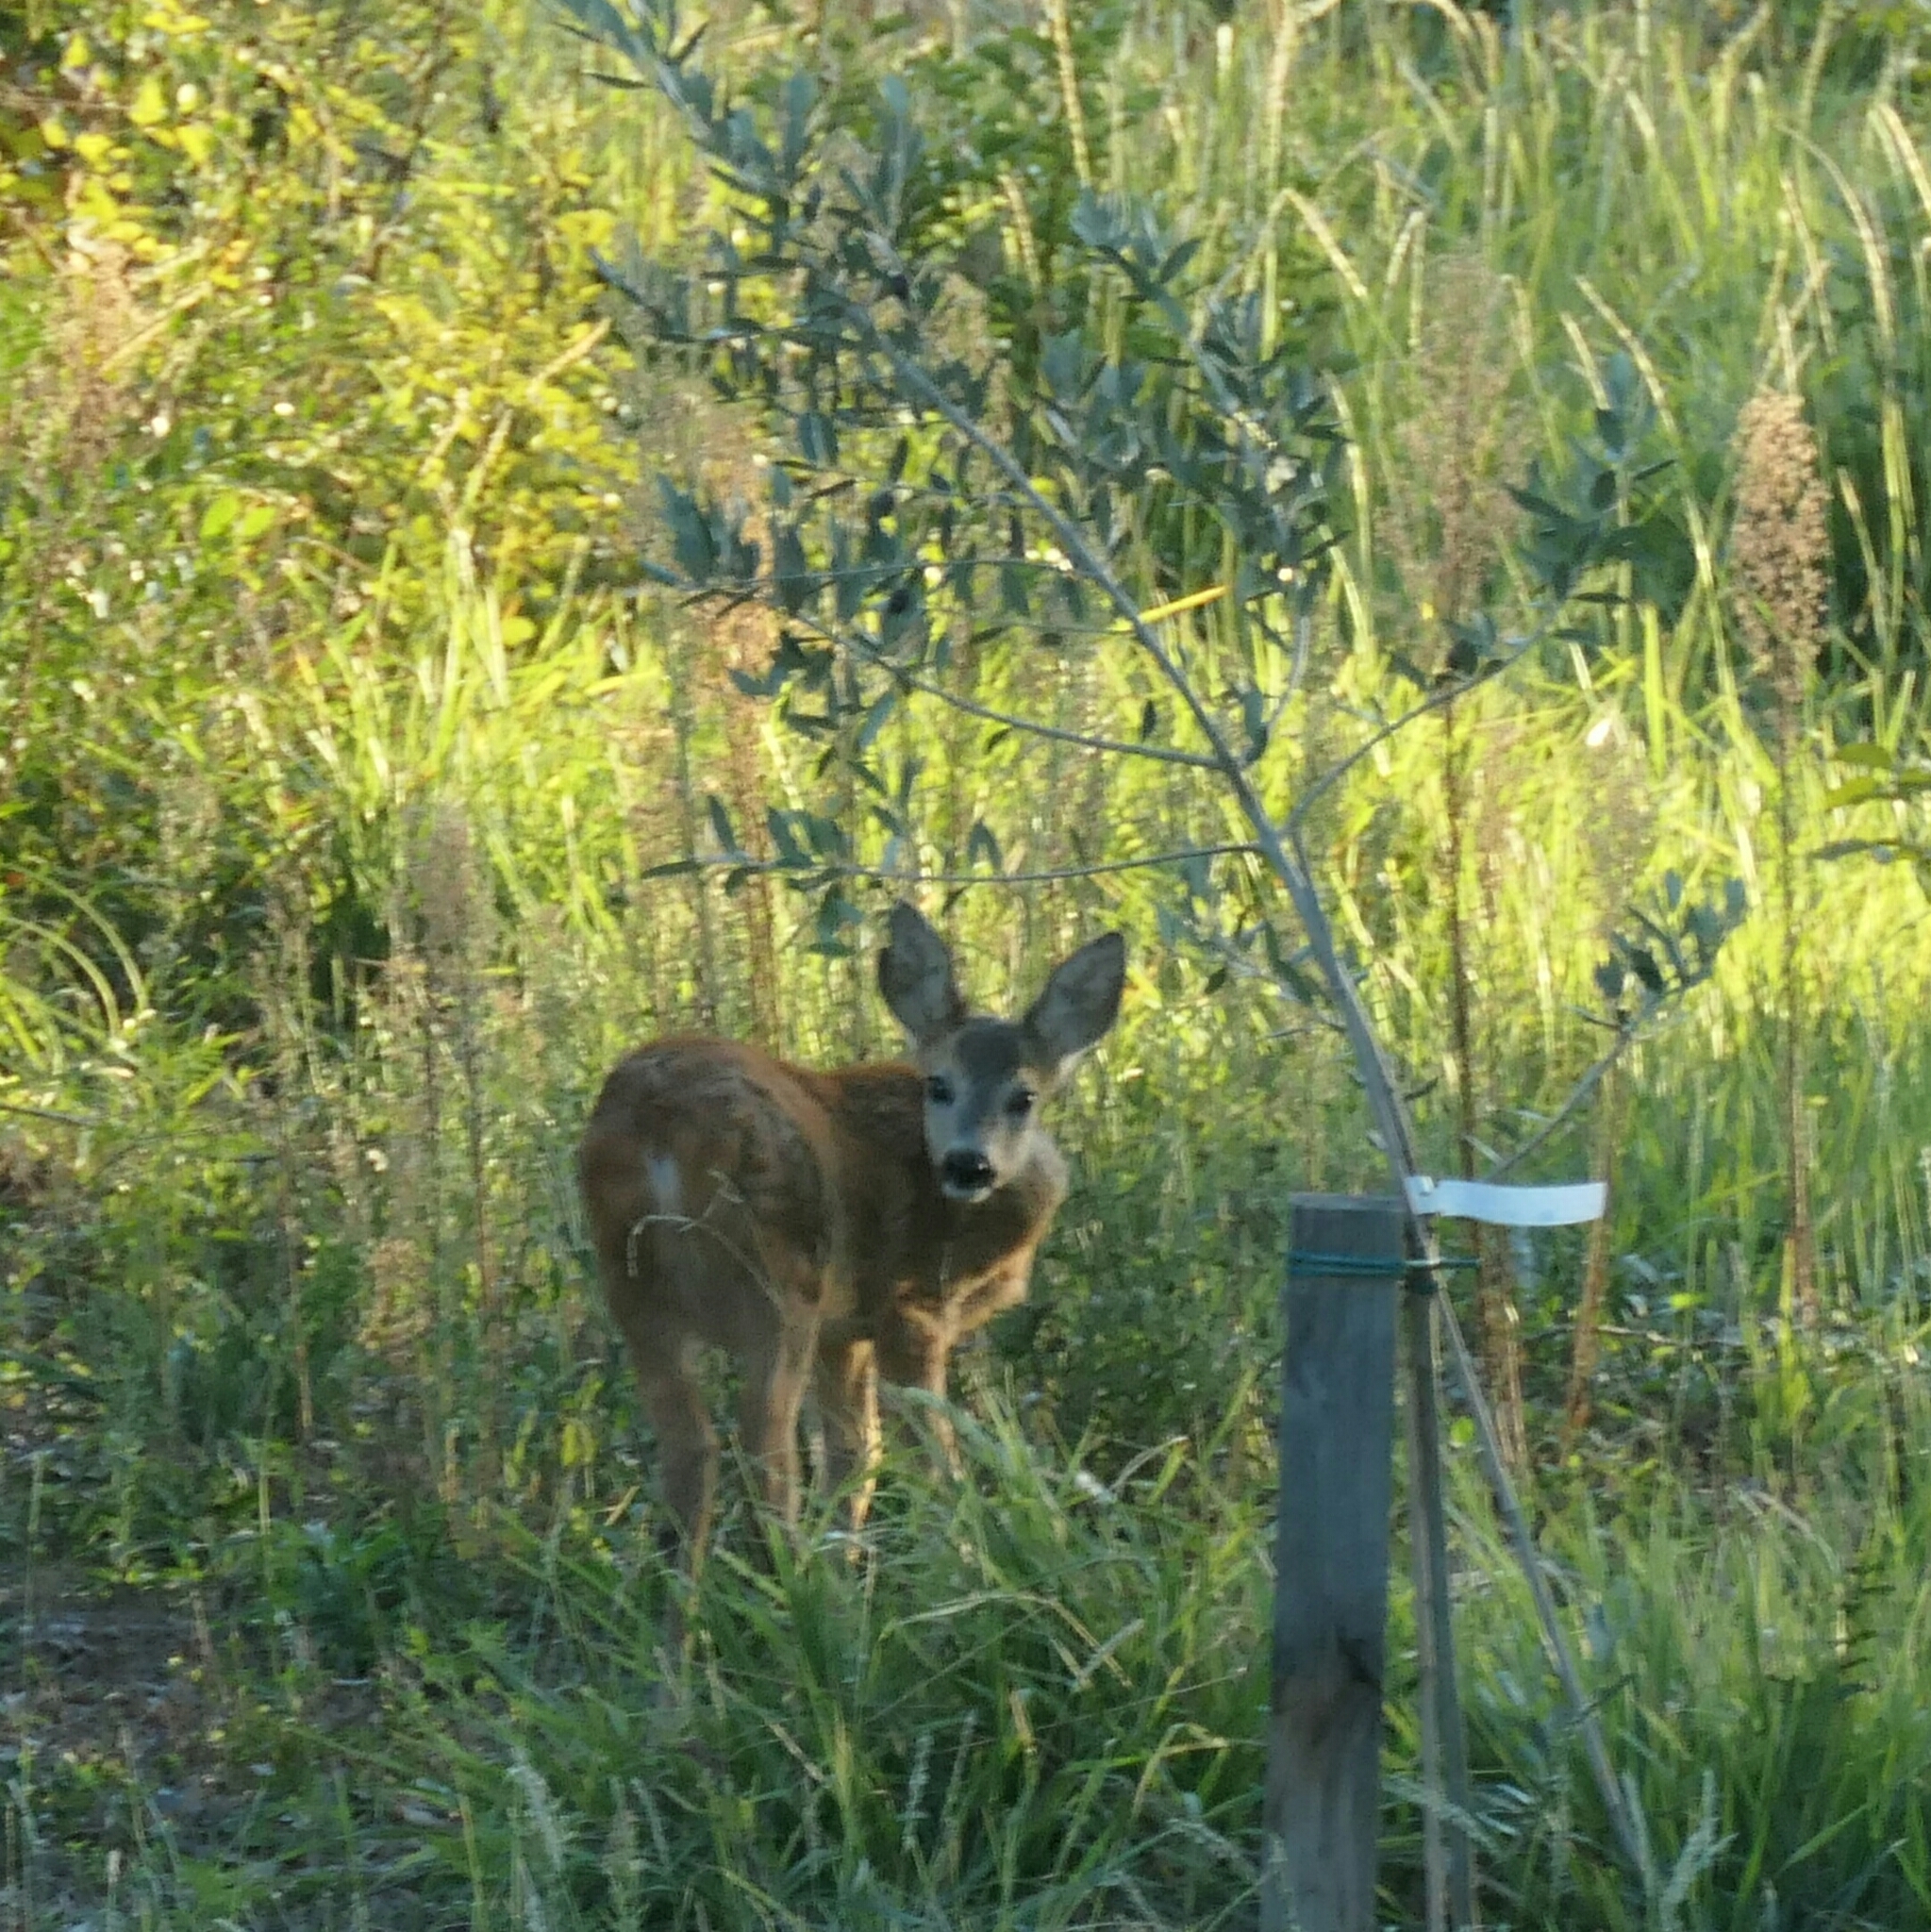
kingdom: Animalia
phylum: Chordata
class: Mammalia
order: Artiodactyla
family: Cervidae
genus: Capreolus
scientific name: Capreolus capreolus
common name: Western roe deer
